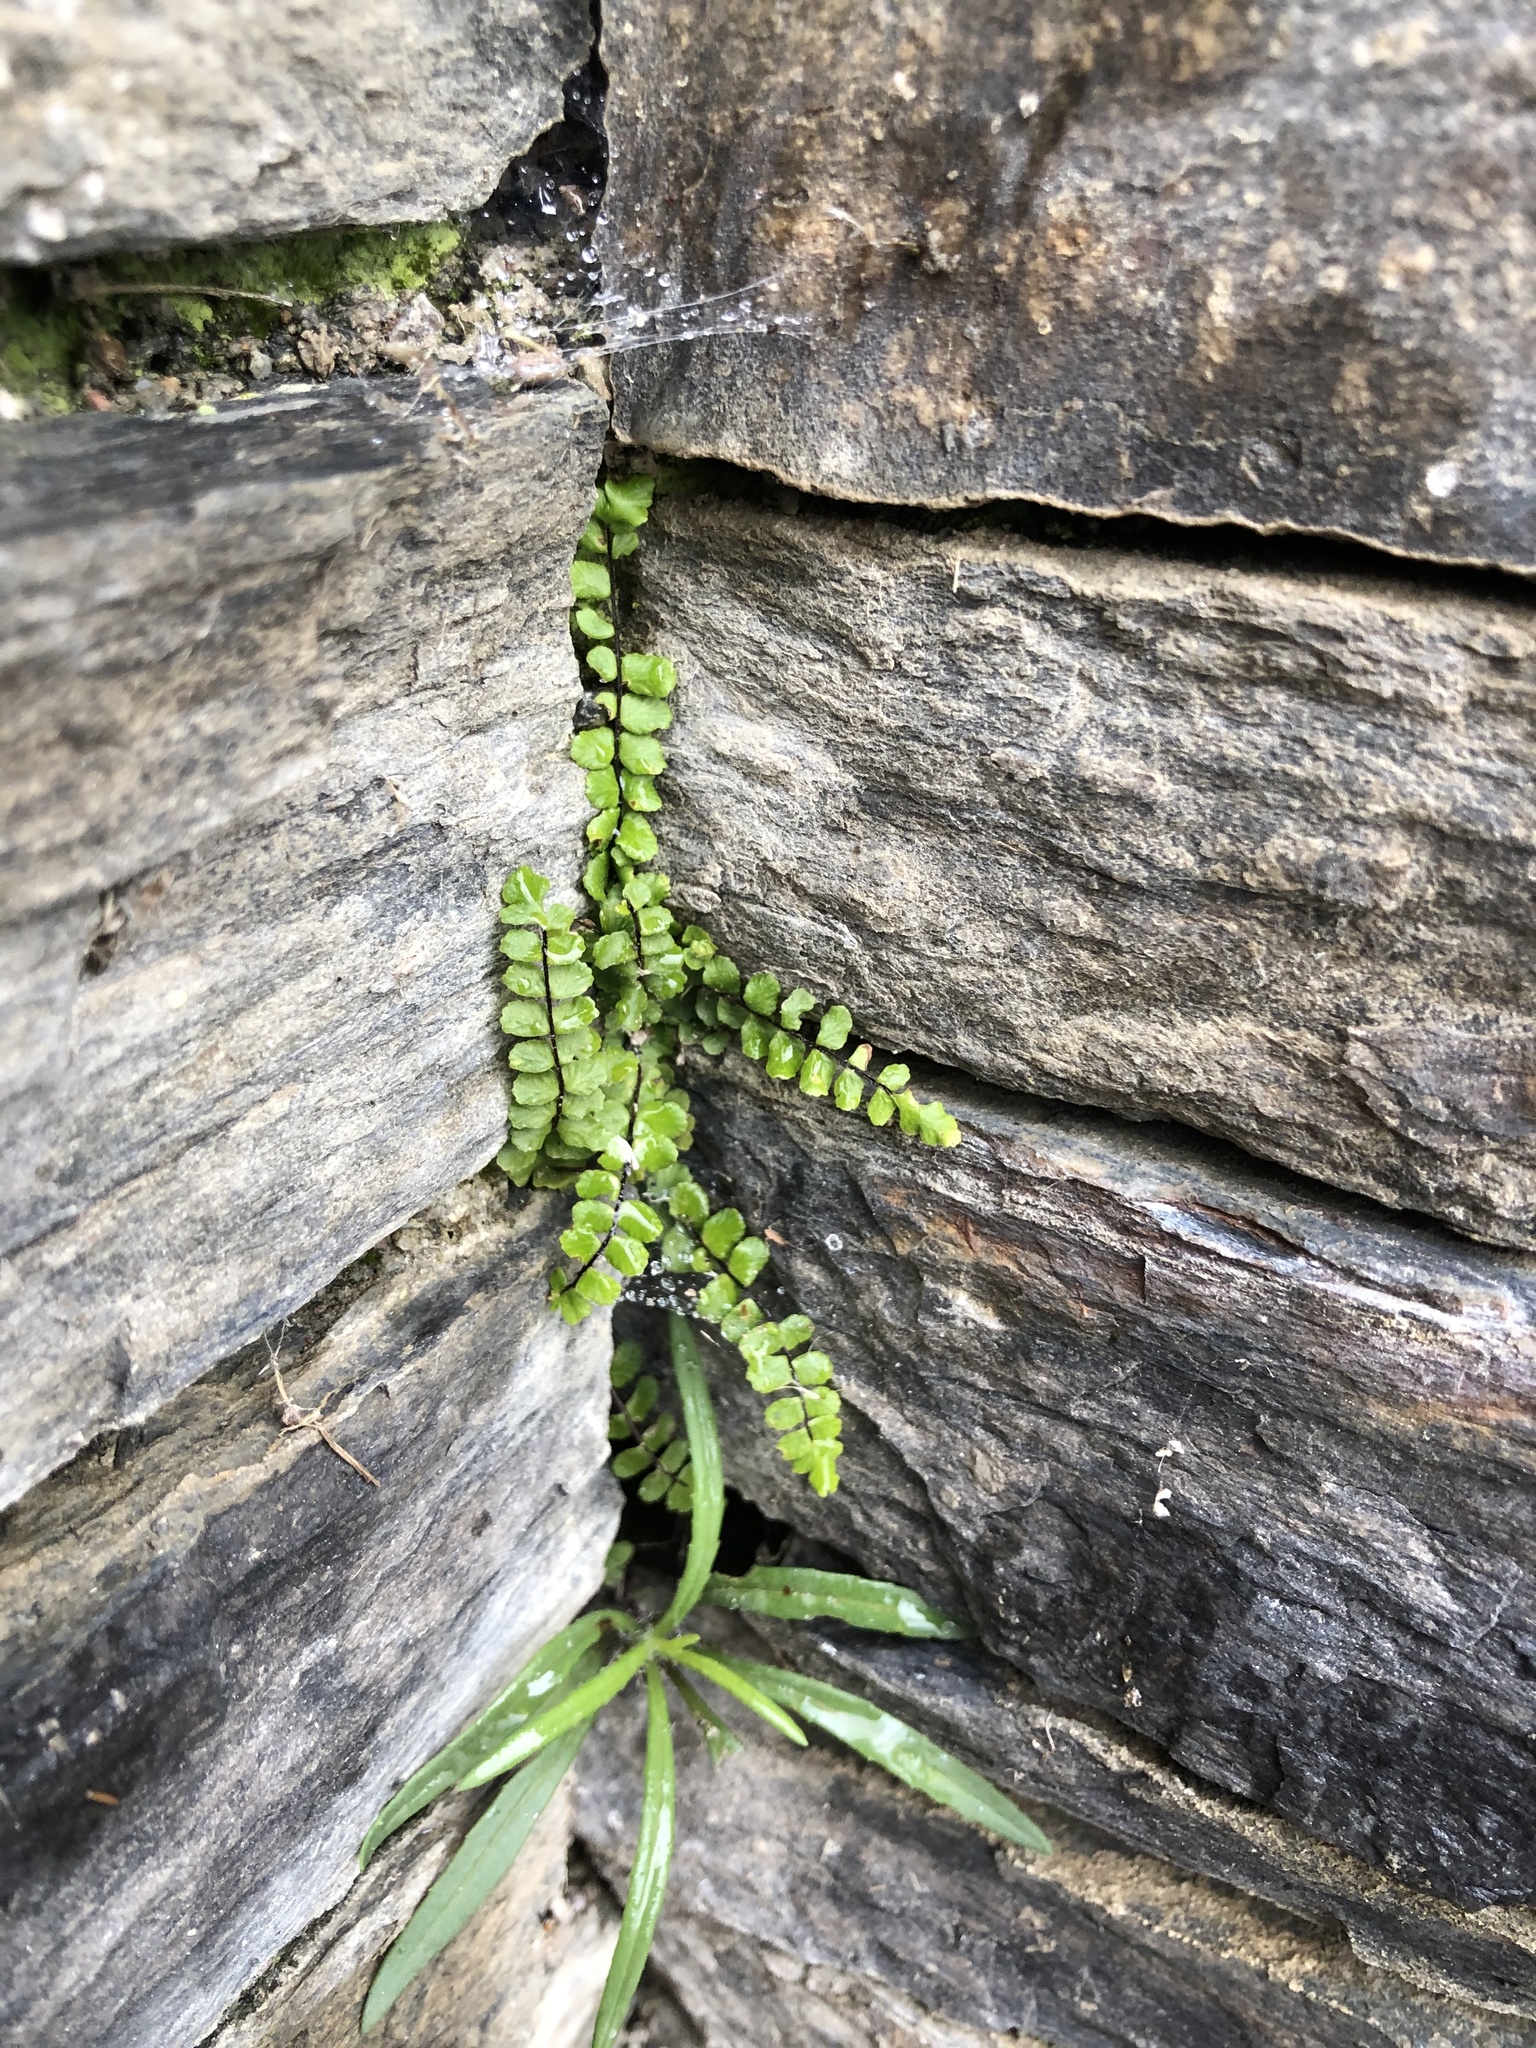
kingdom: Plantae
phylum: Tracheophyta
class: Polypodiopsida
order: Polypodiales
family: Aspleniaceae
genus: Asplenium
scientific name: Asplenium trichomanes
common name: Maidenhair spleenwort
